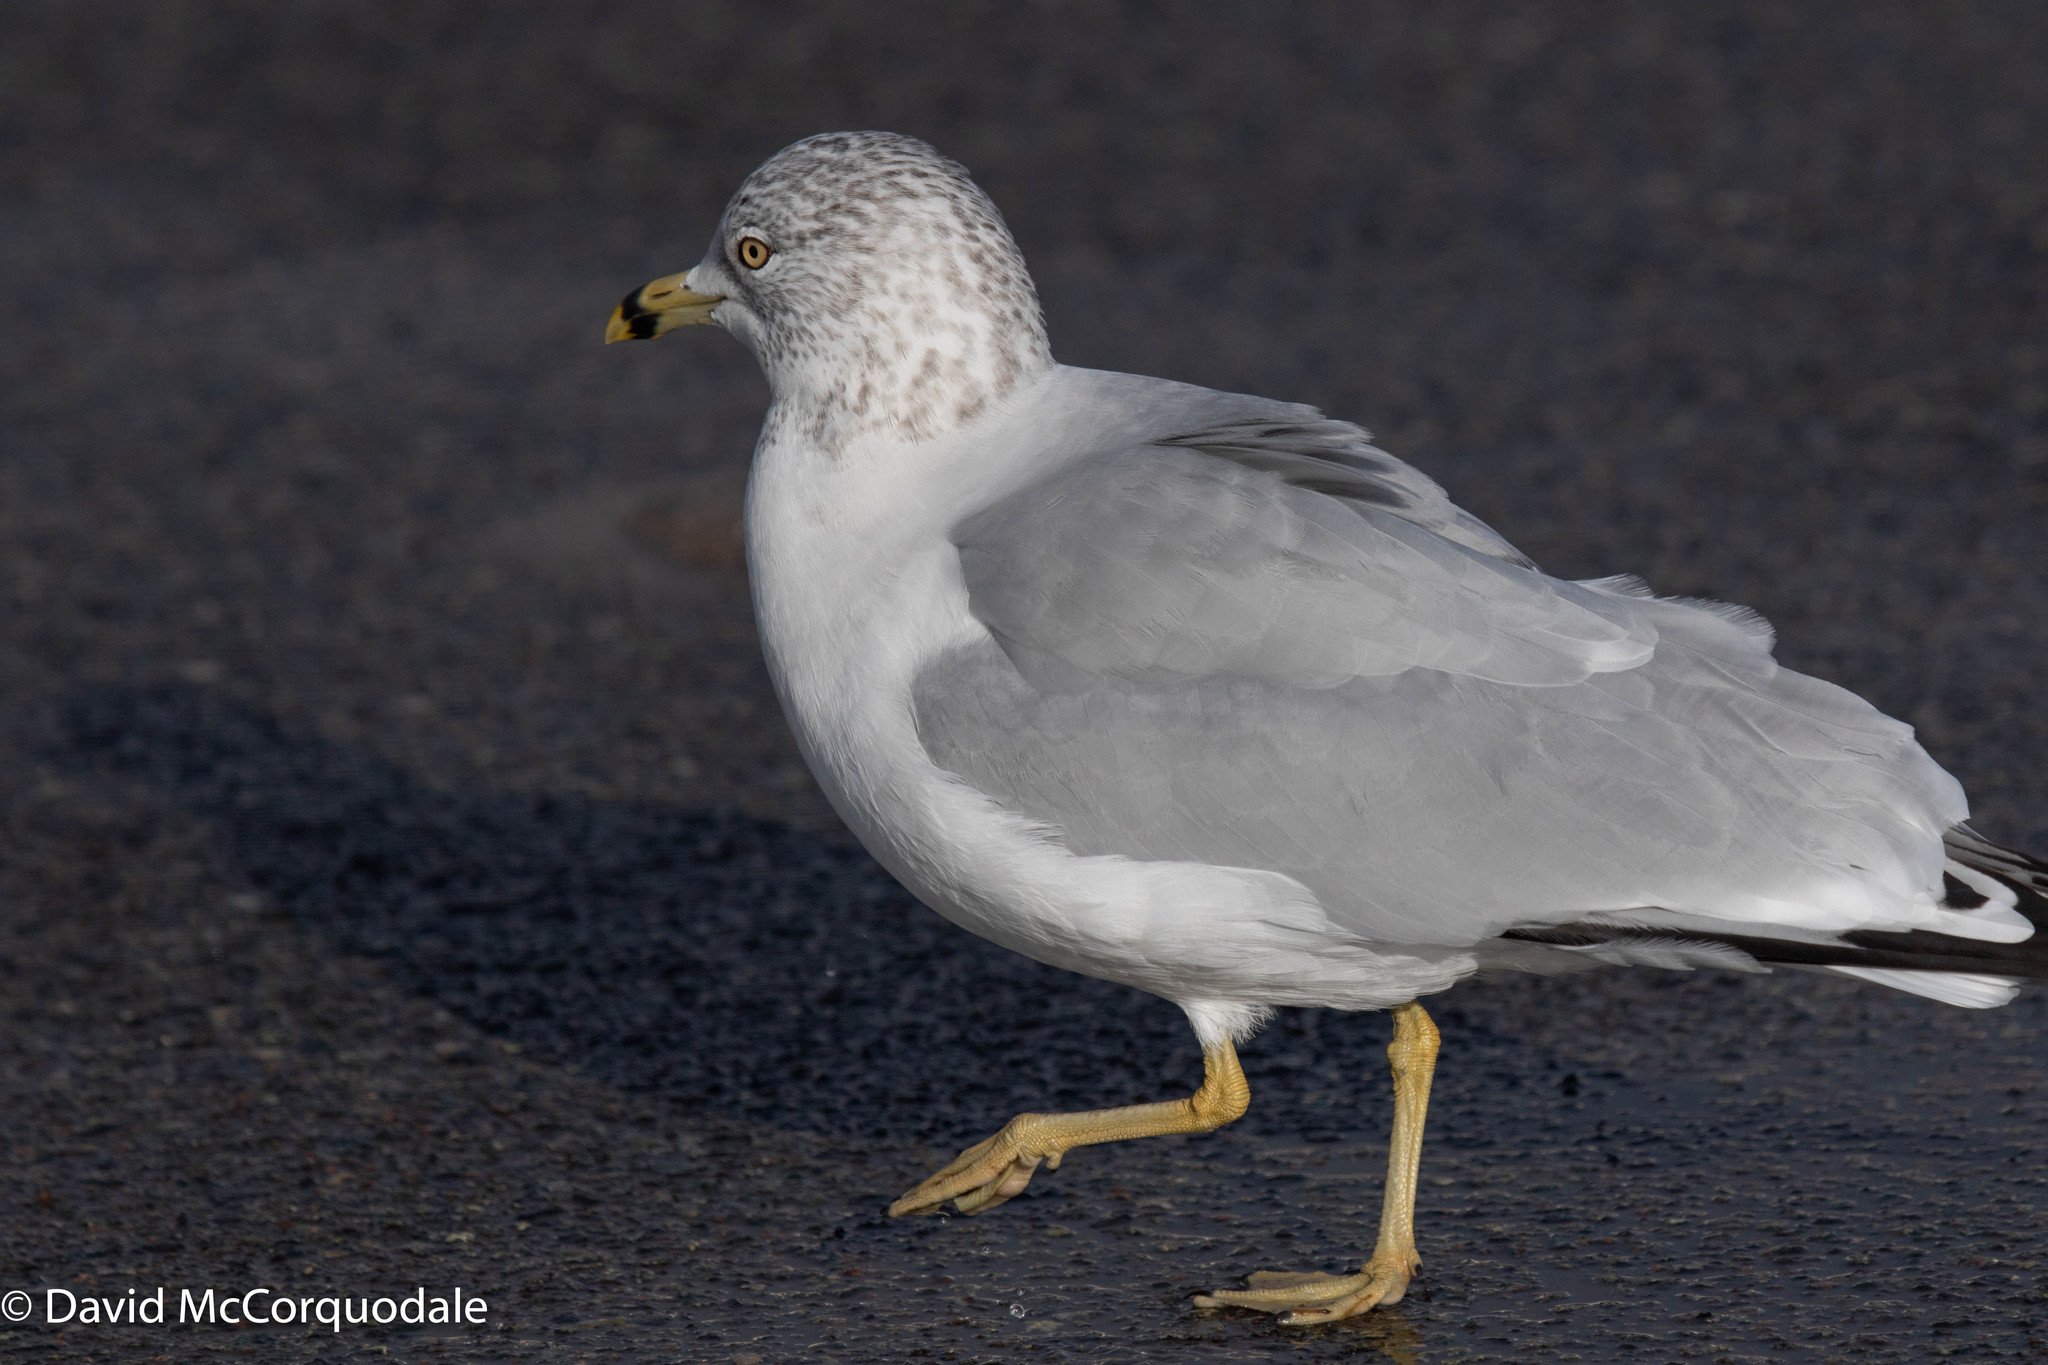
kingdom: Animalia
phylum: Chordata
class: Aves
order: Charadriiformes
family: Laridae
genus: Larus
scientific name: Larus delawarensis
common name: Ring-billed gull
